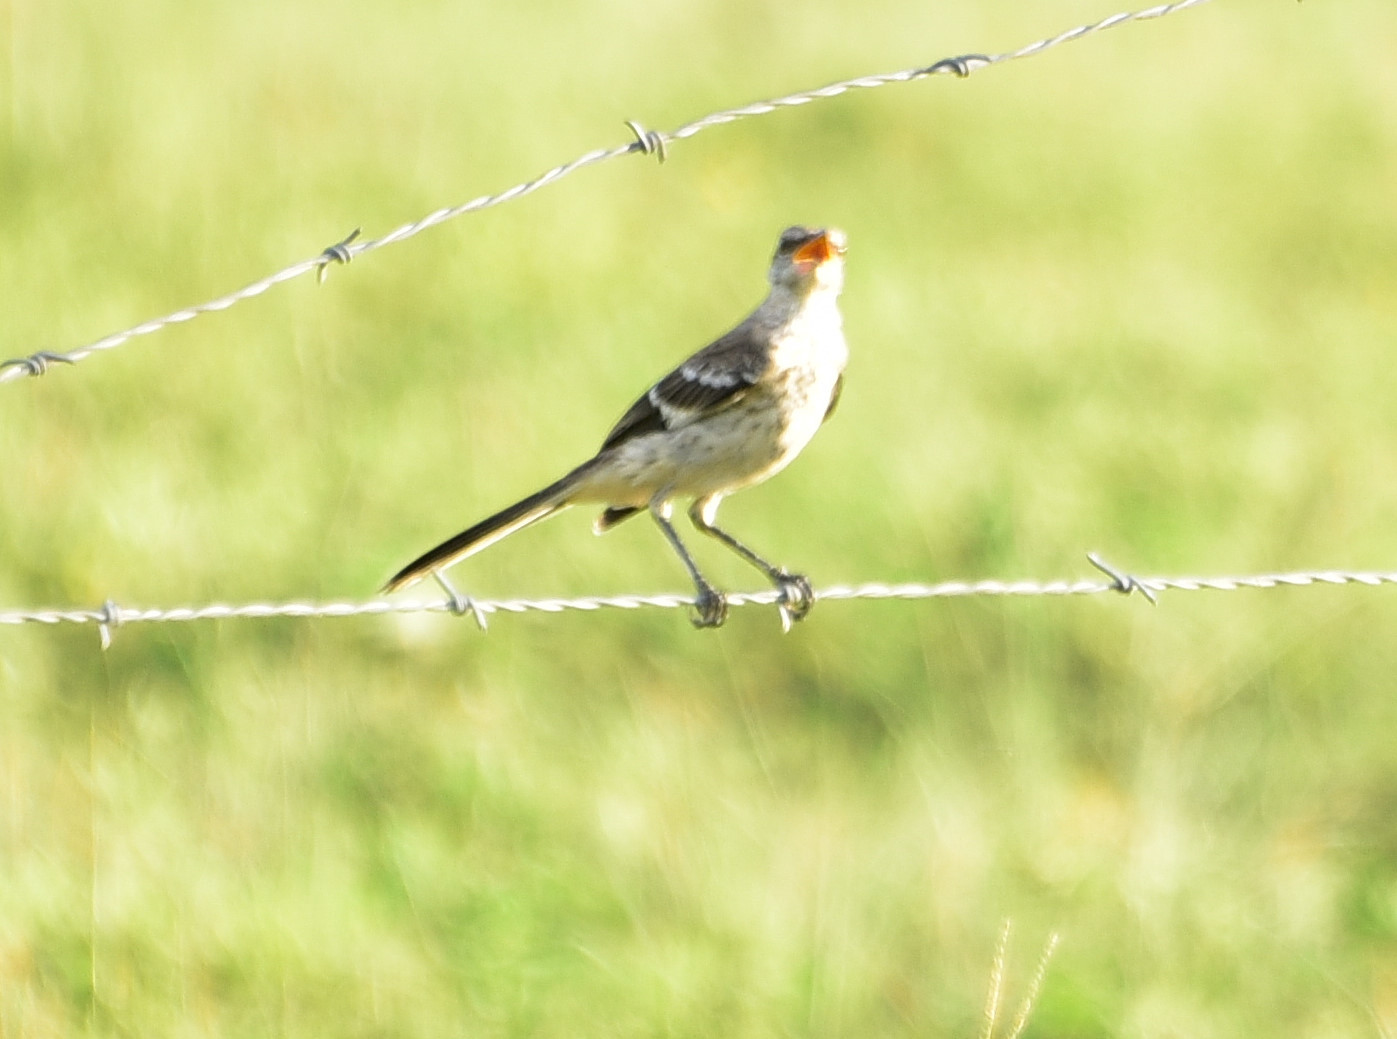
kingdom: Animalia
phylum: Chordata
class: Aves
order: Passeriformes
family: Mimidae
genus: Mimus
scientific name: Mimus polyglottos
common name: Northern mockingbird
